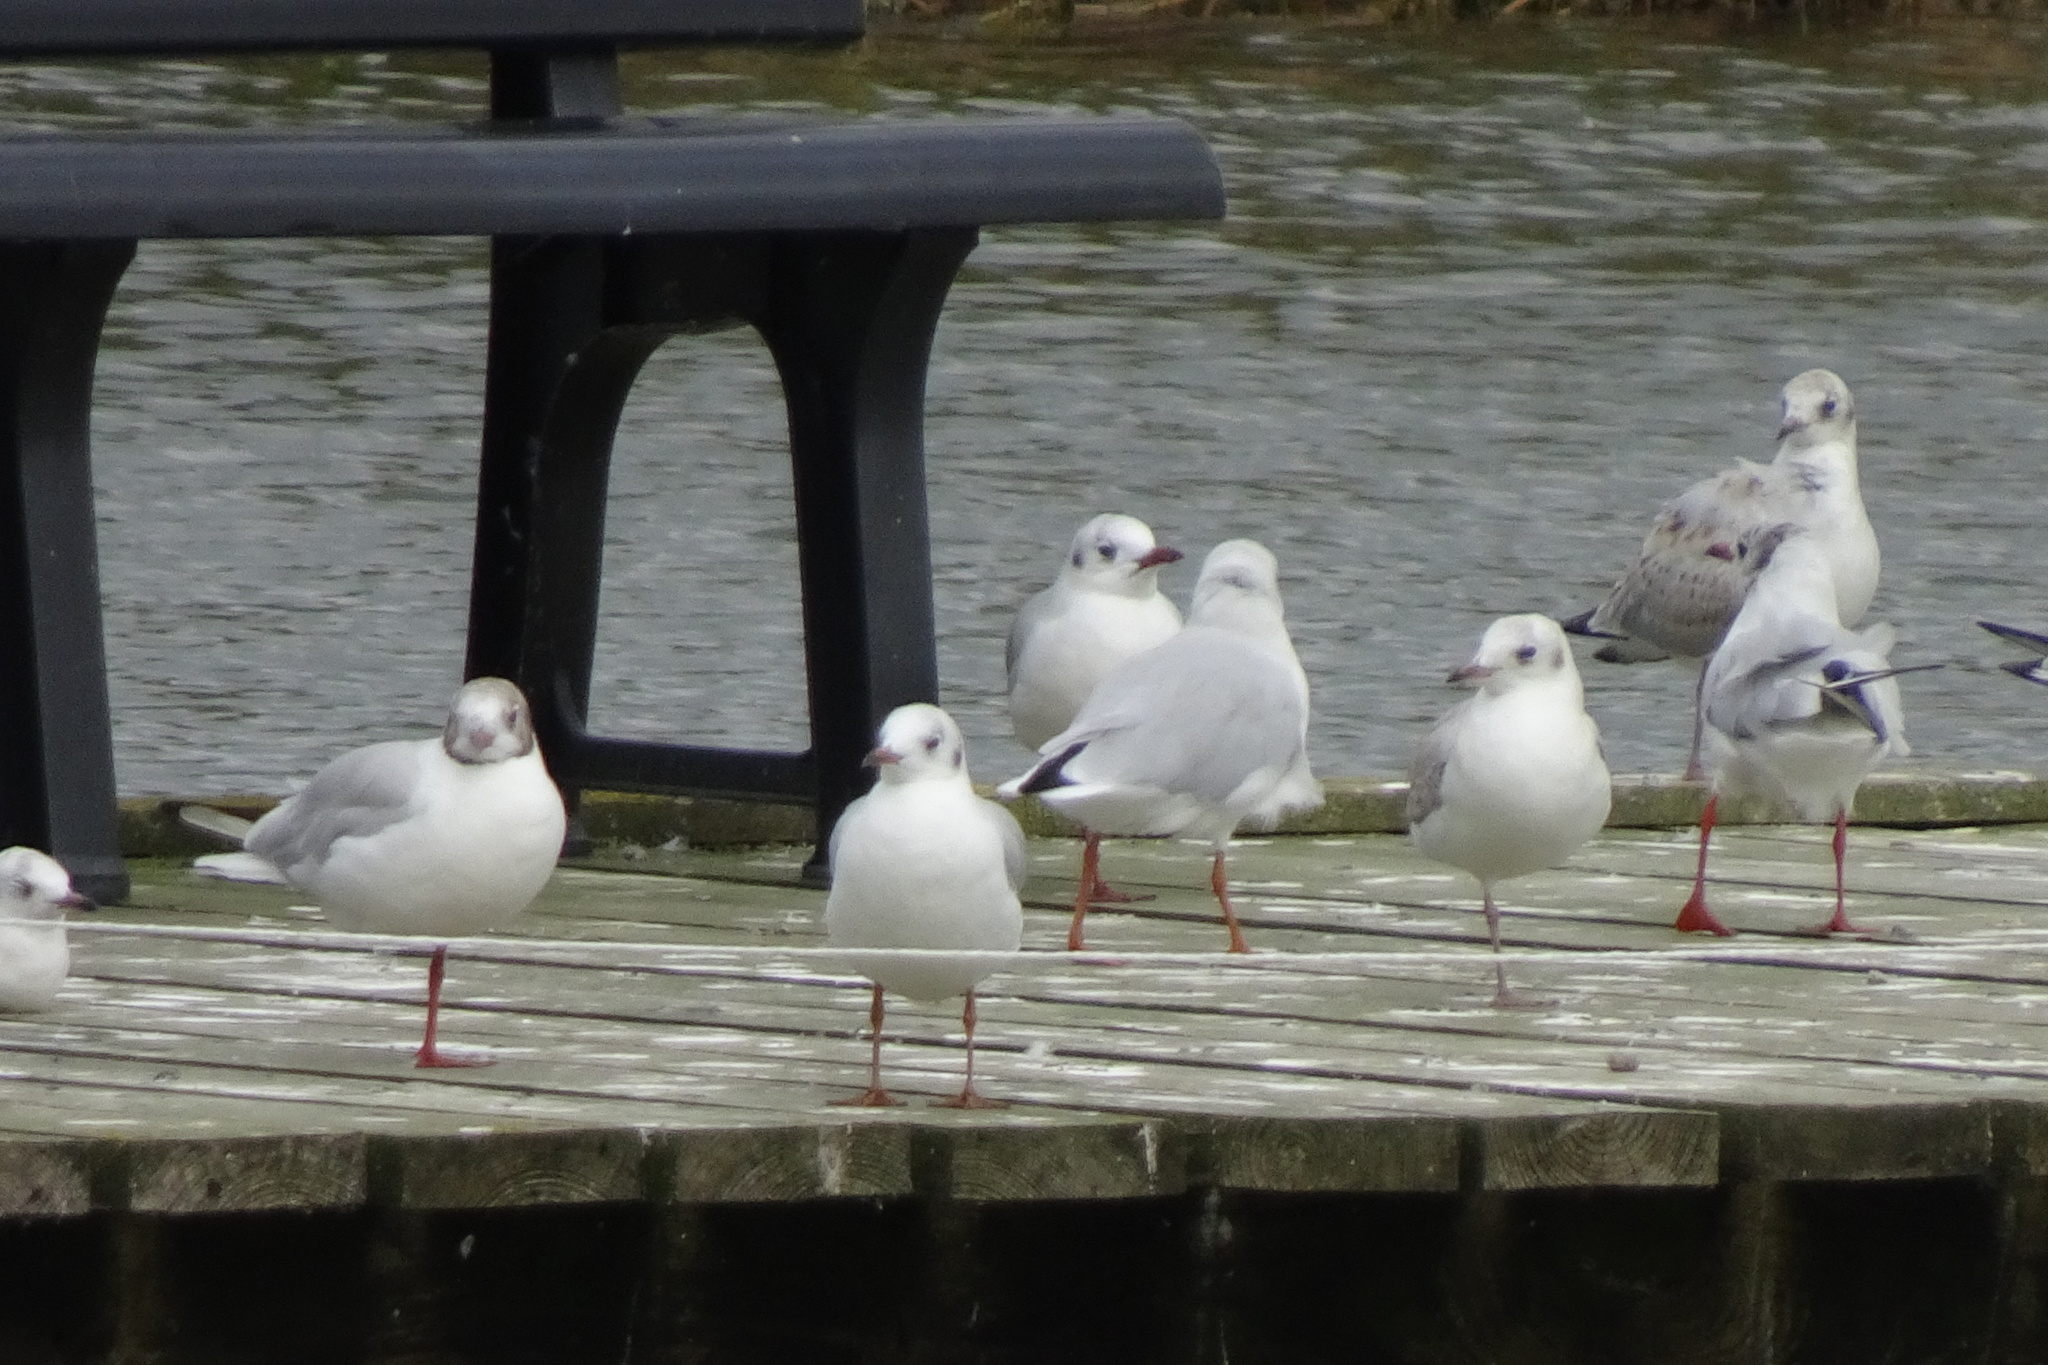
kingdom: Animalia
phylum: Chordata
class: Aves
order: Charadriiformes
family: Laridae
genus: Chroicocephalus
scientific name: Chroicocephalus ridibundus
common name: Black-headed gull
